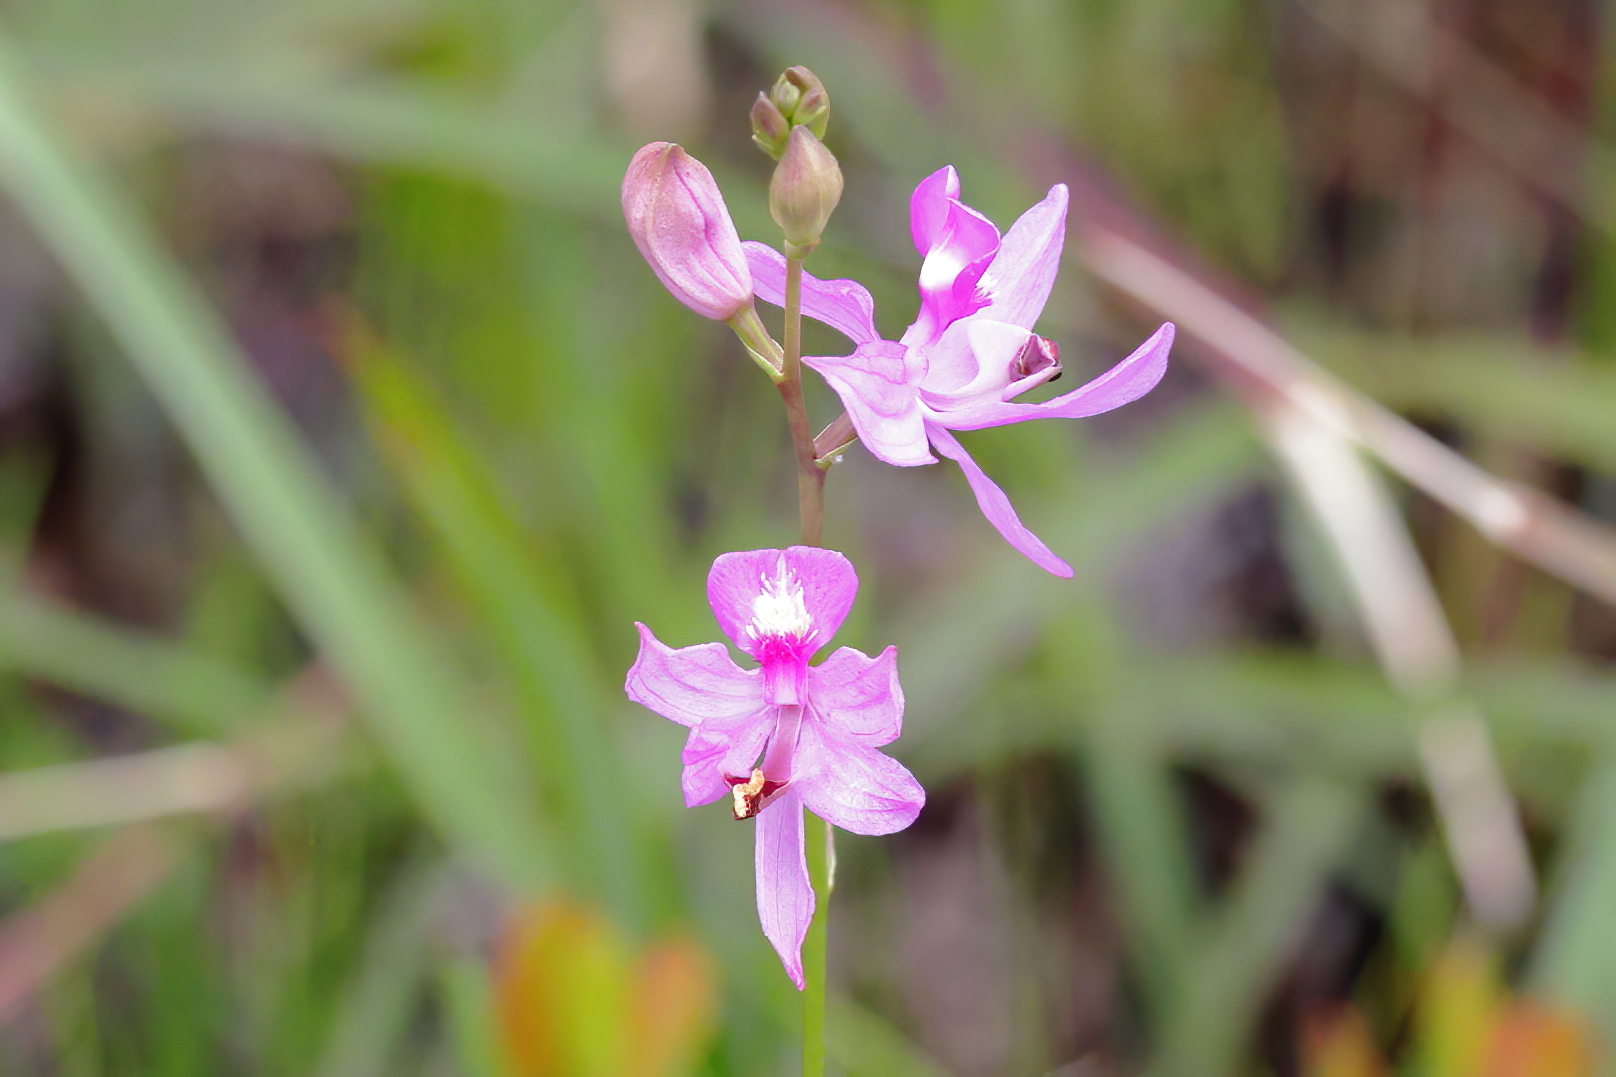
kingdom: Plantae
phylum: Tracheophyta
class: Liliopsida
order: Asparagales
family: Orchidaceae
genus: Calopogon
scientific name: Calopogon pallidus
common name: Pale grasspink
